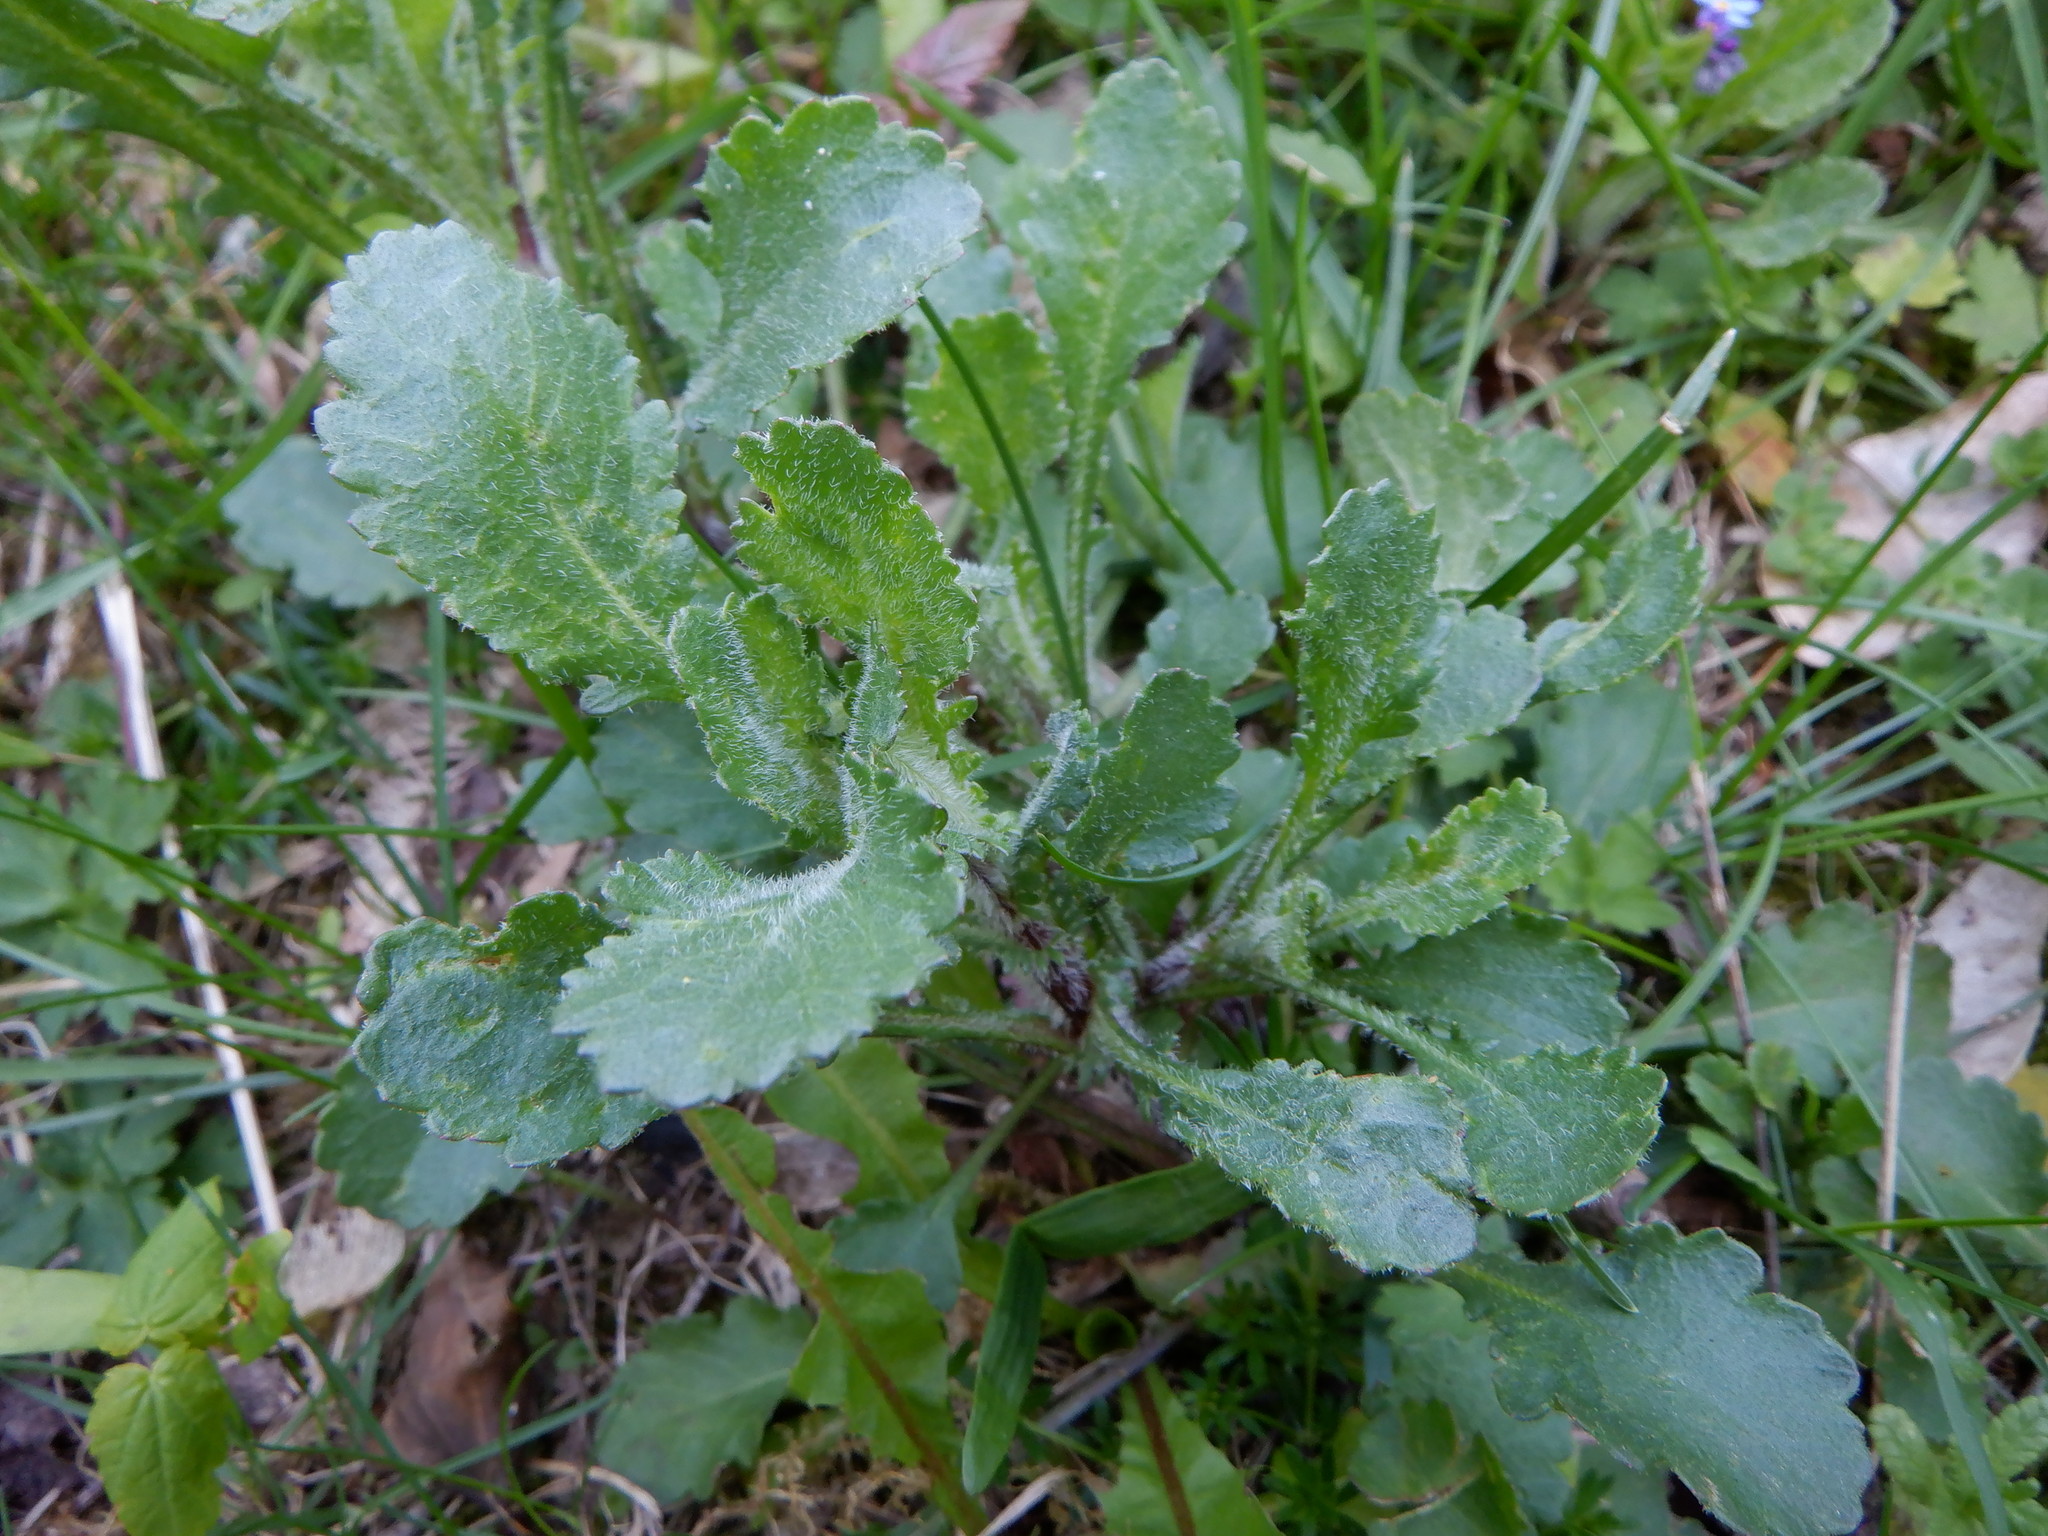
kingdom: Plantae
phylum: Tracheophyta
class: Magnoliopsida
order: Asterales
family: Asteraceae
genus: Leucanthemum
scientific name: Leucanthemum vulgare
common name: Oxeye daisy
